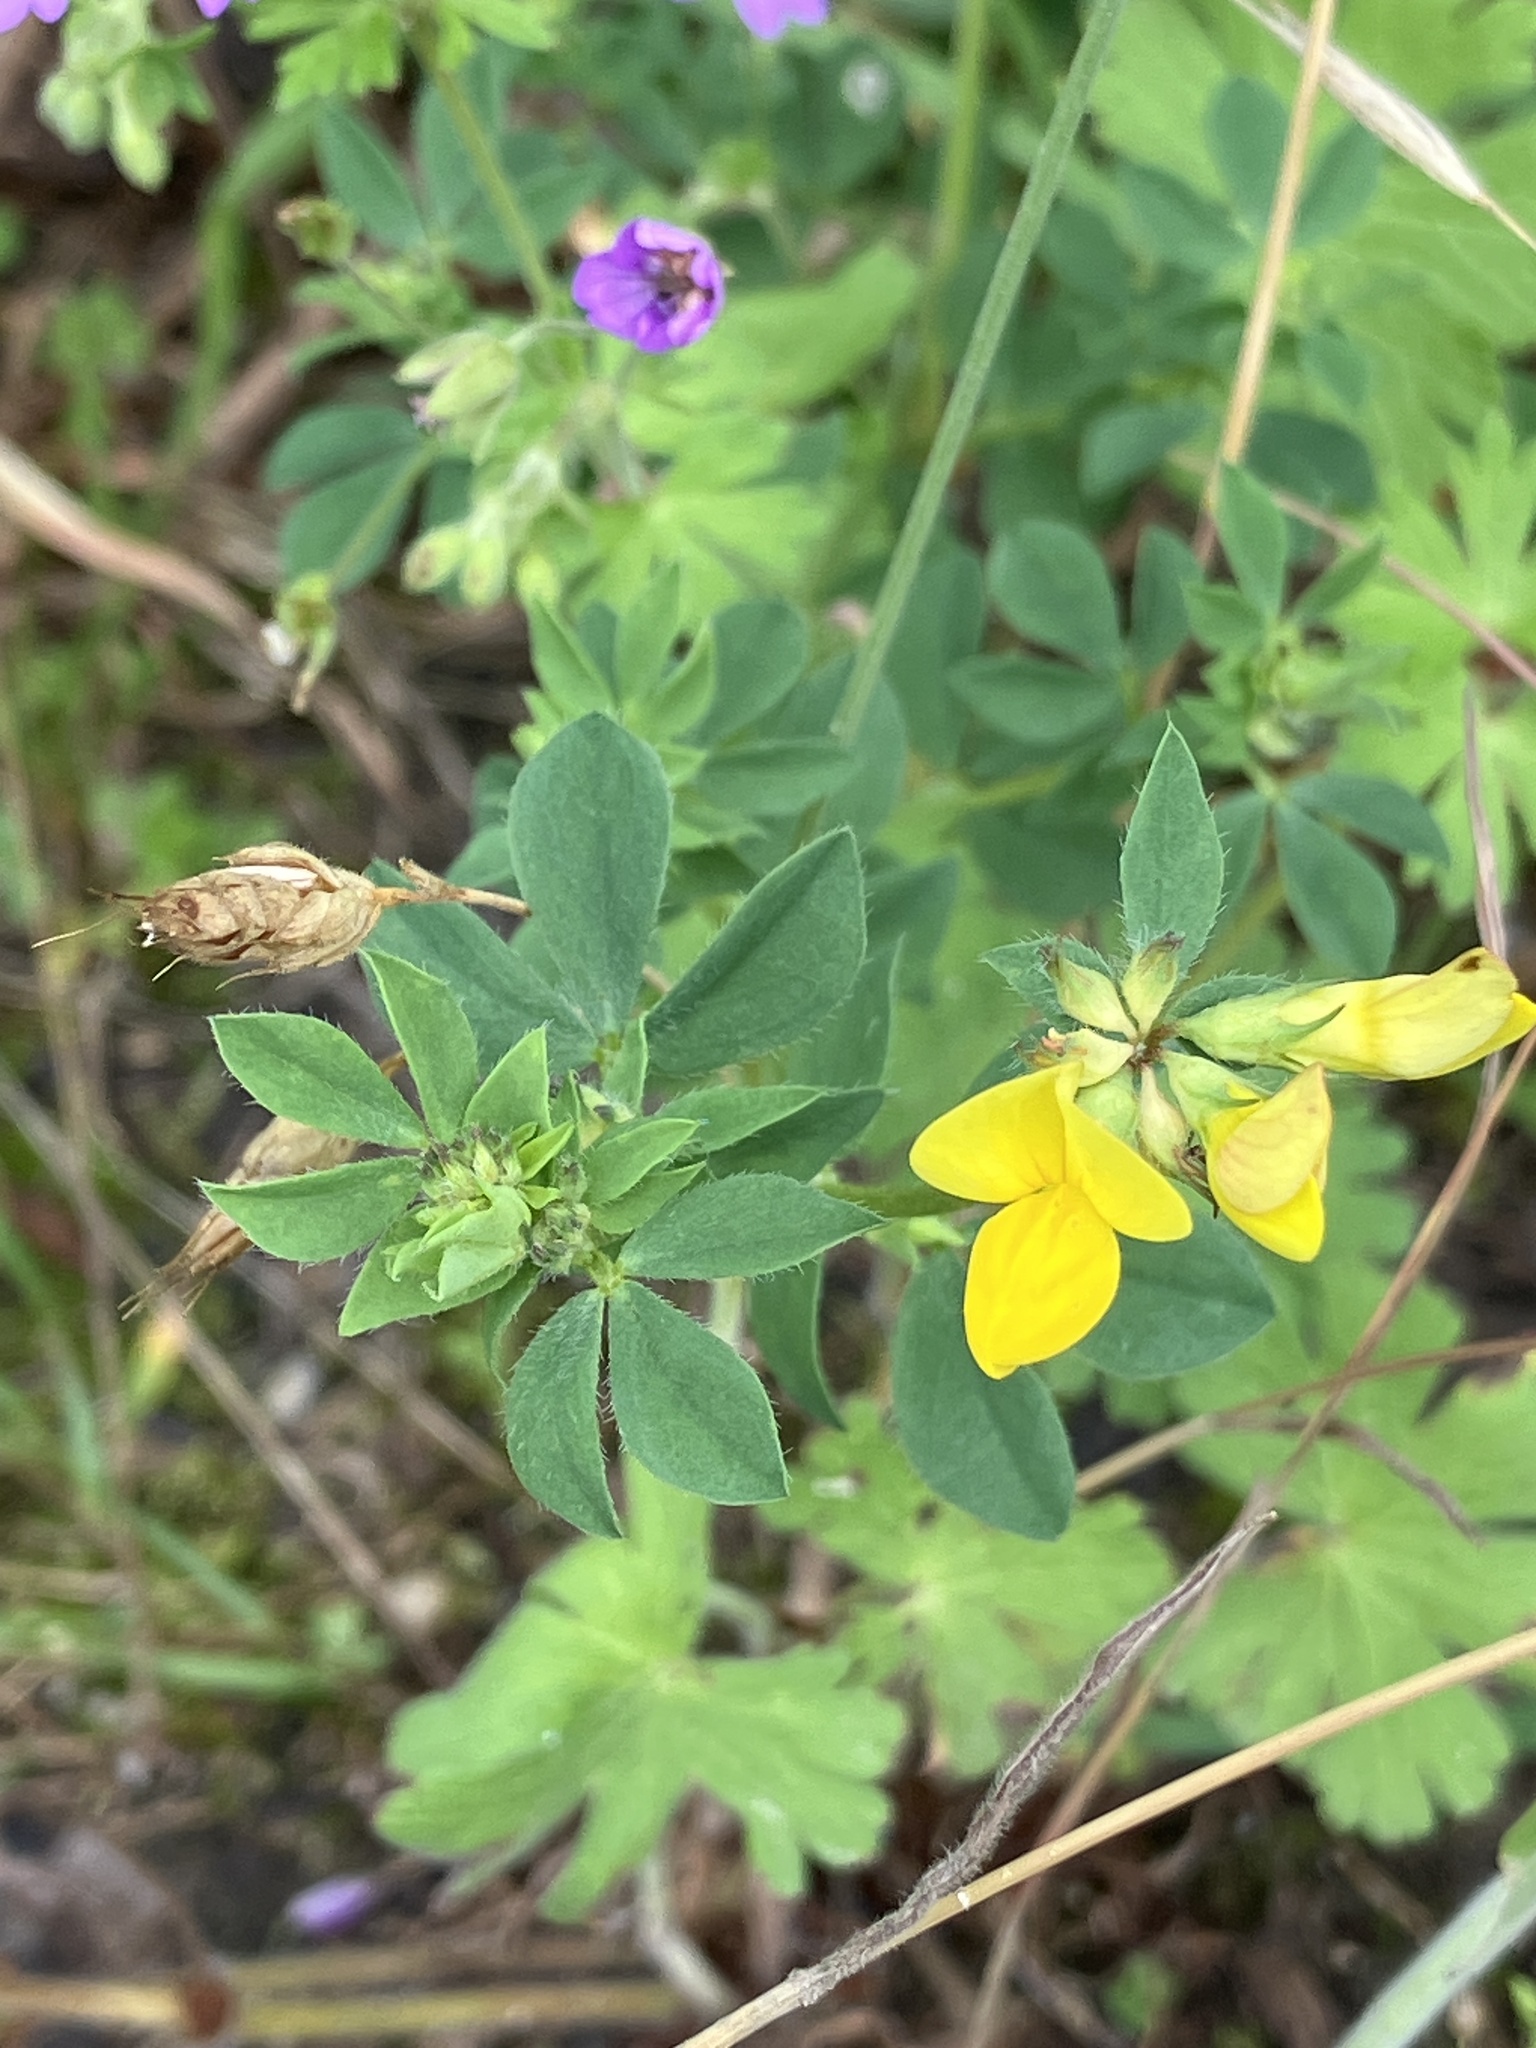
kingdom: Plantae
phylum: Tracheophyta
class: Magnoliopsida
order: Fabales
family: Fabaceae
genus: Lotus
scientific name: Lotus corniculatus
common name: Common bird's-foot-trefoil
